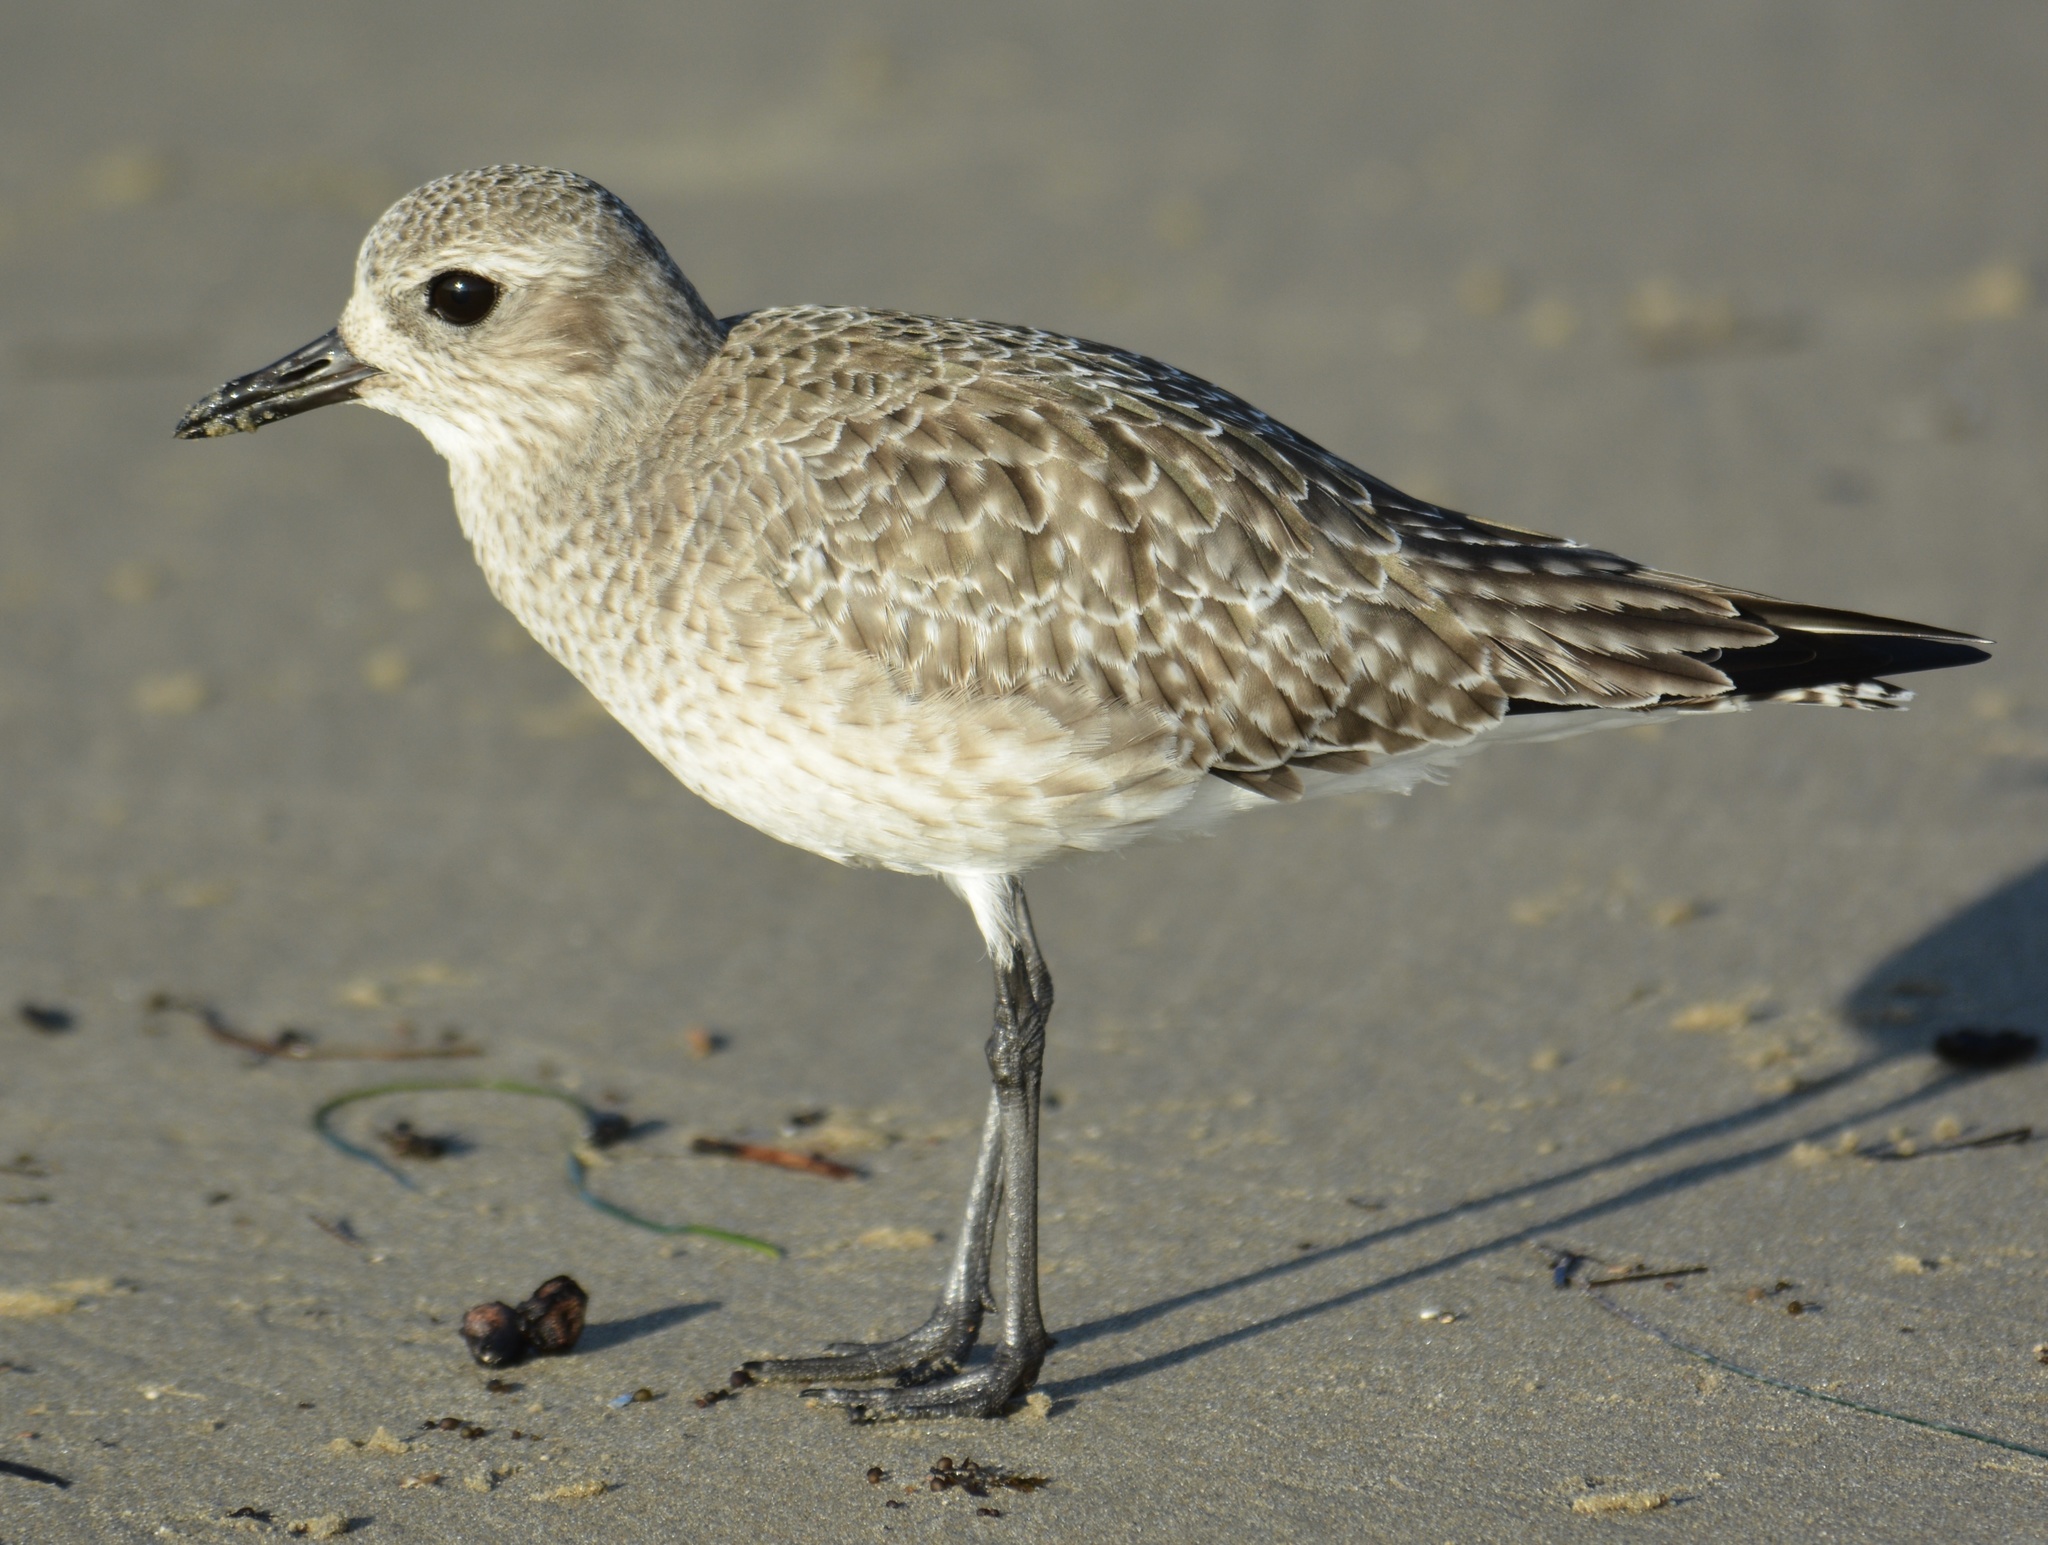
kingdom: Animalia
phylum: Chordata
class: Aves
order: Charadriiformes
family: Charadriidae
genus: Pluvialis
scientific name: Pluvialis squatarola
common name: Grey plover
